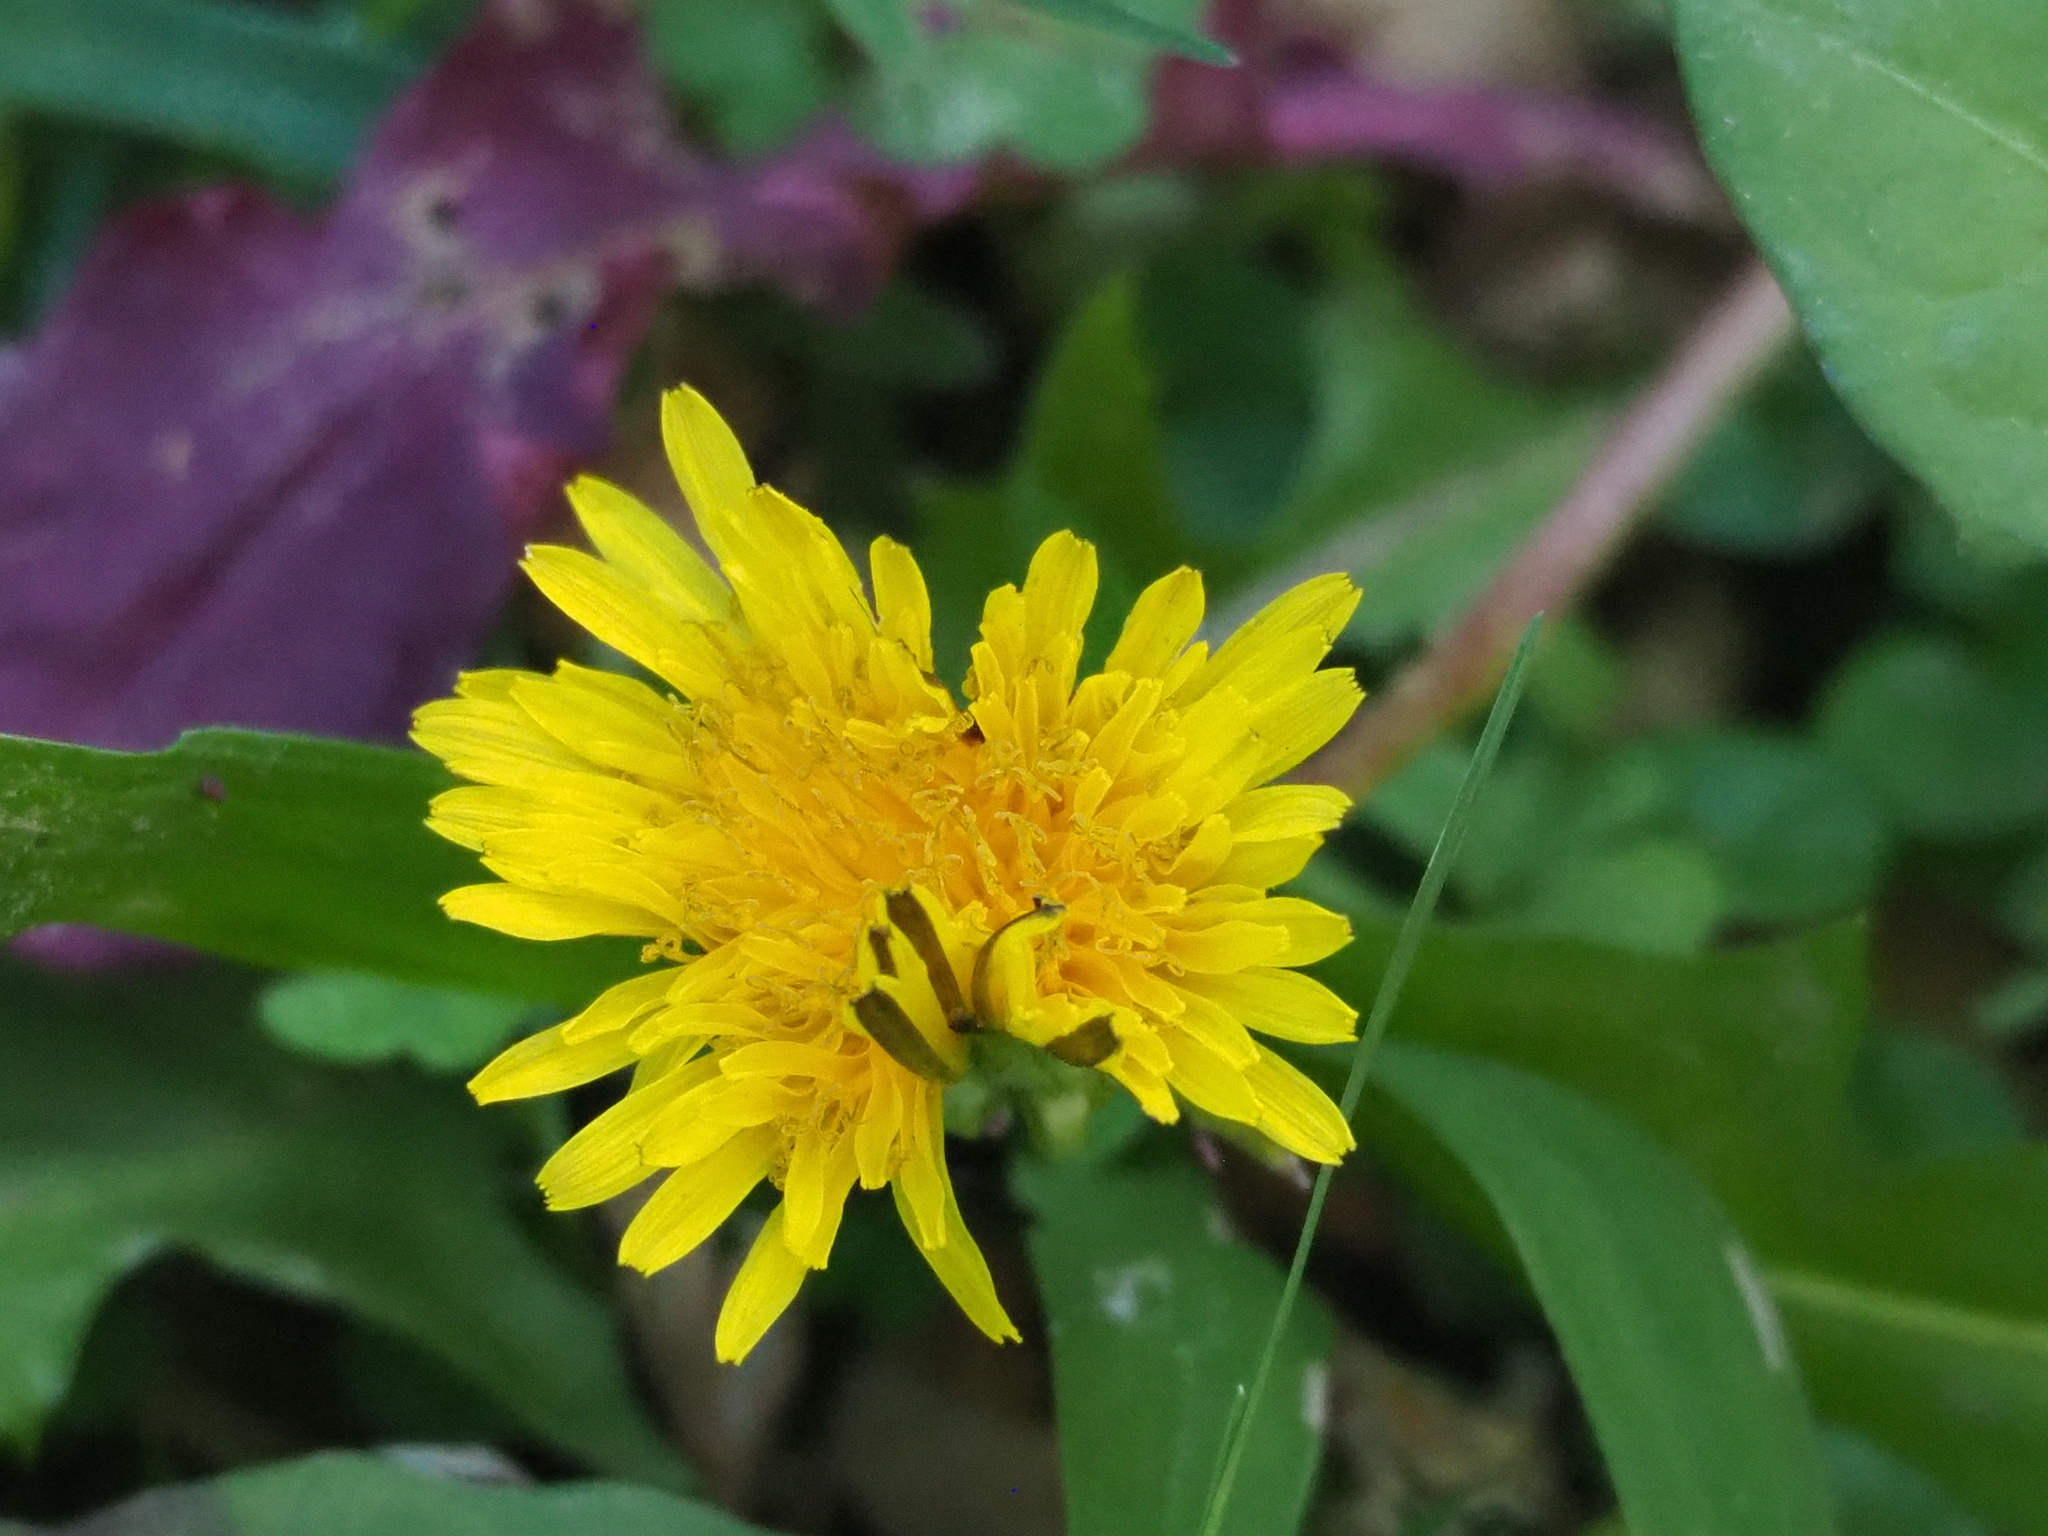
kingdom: Plantae
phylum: Tracheophyta
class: Magnoliopsida
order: Asterales
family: Asteraceae
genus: Taraxacum
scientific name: Taraxacum officinale
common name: Common dandelion
